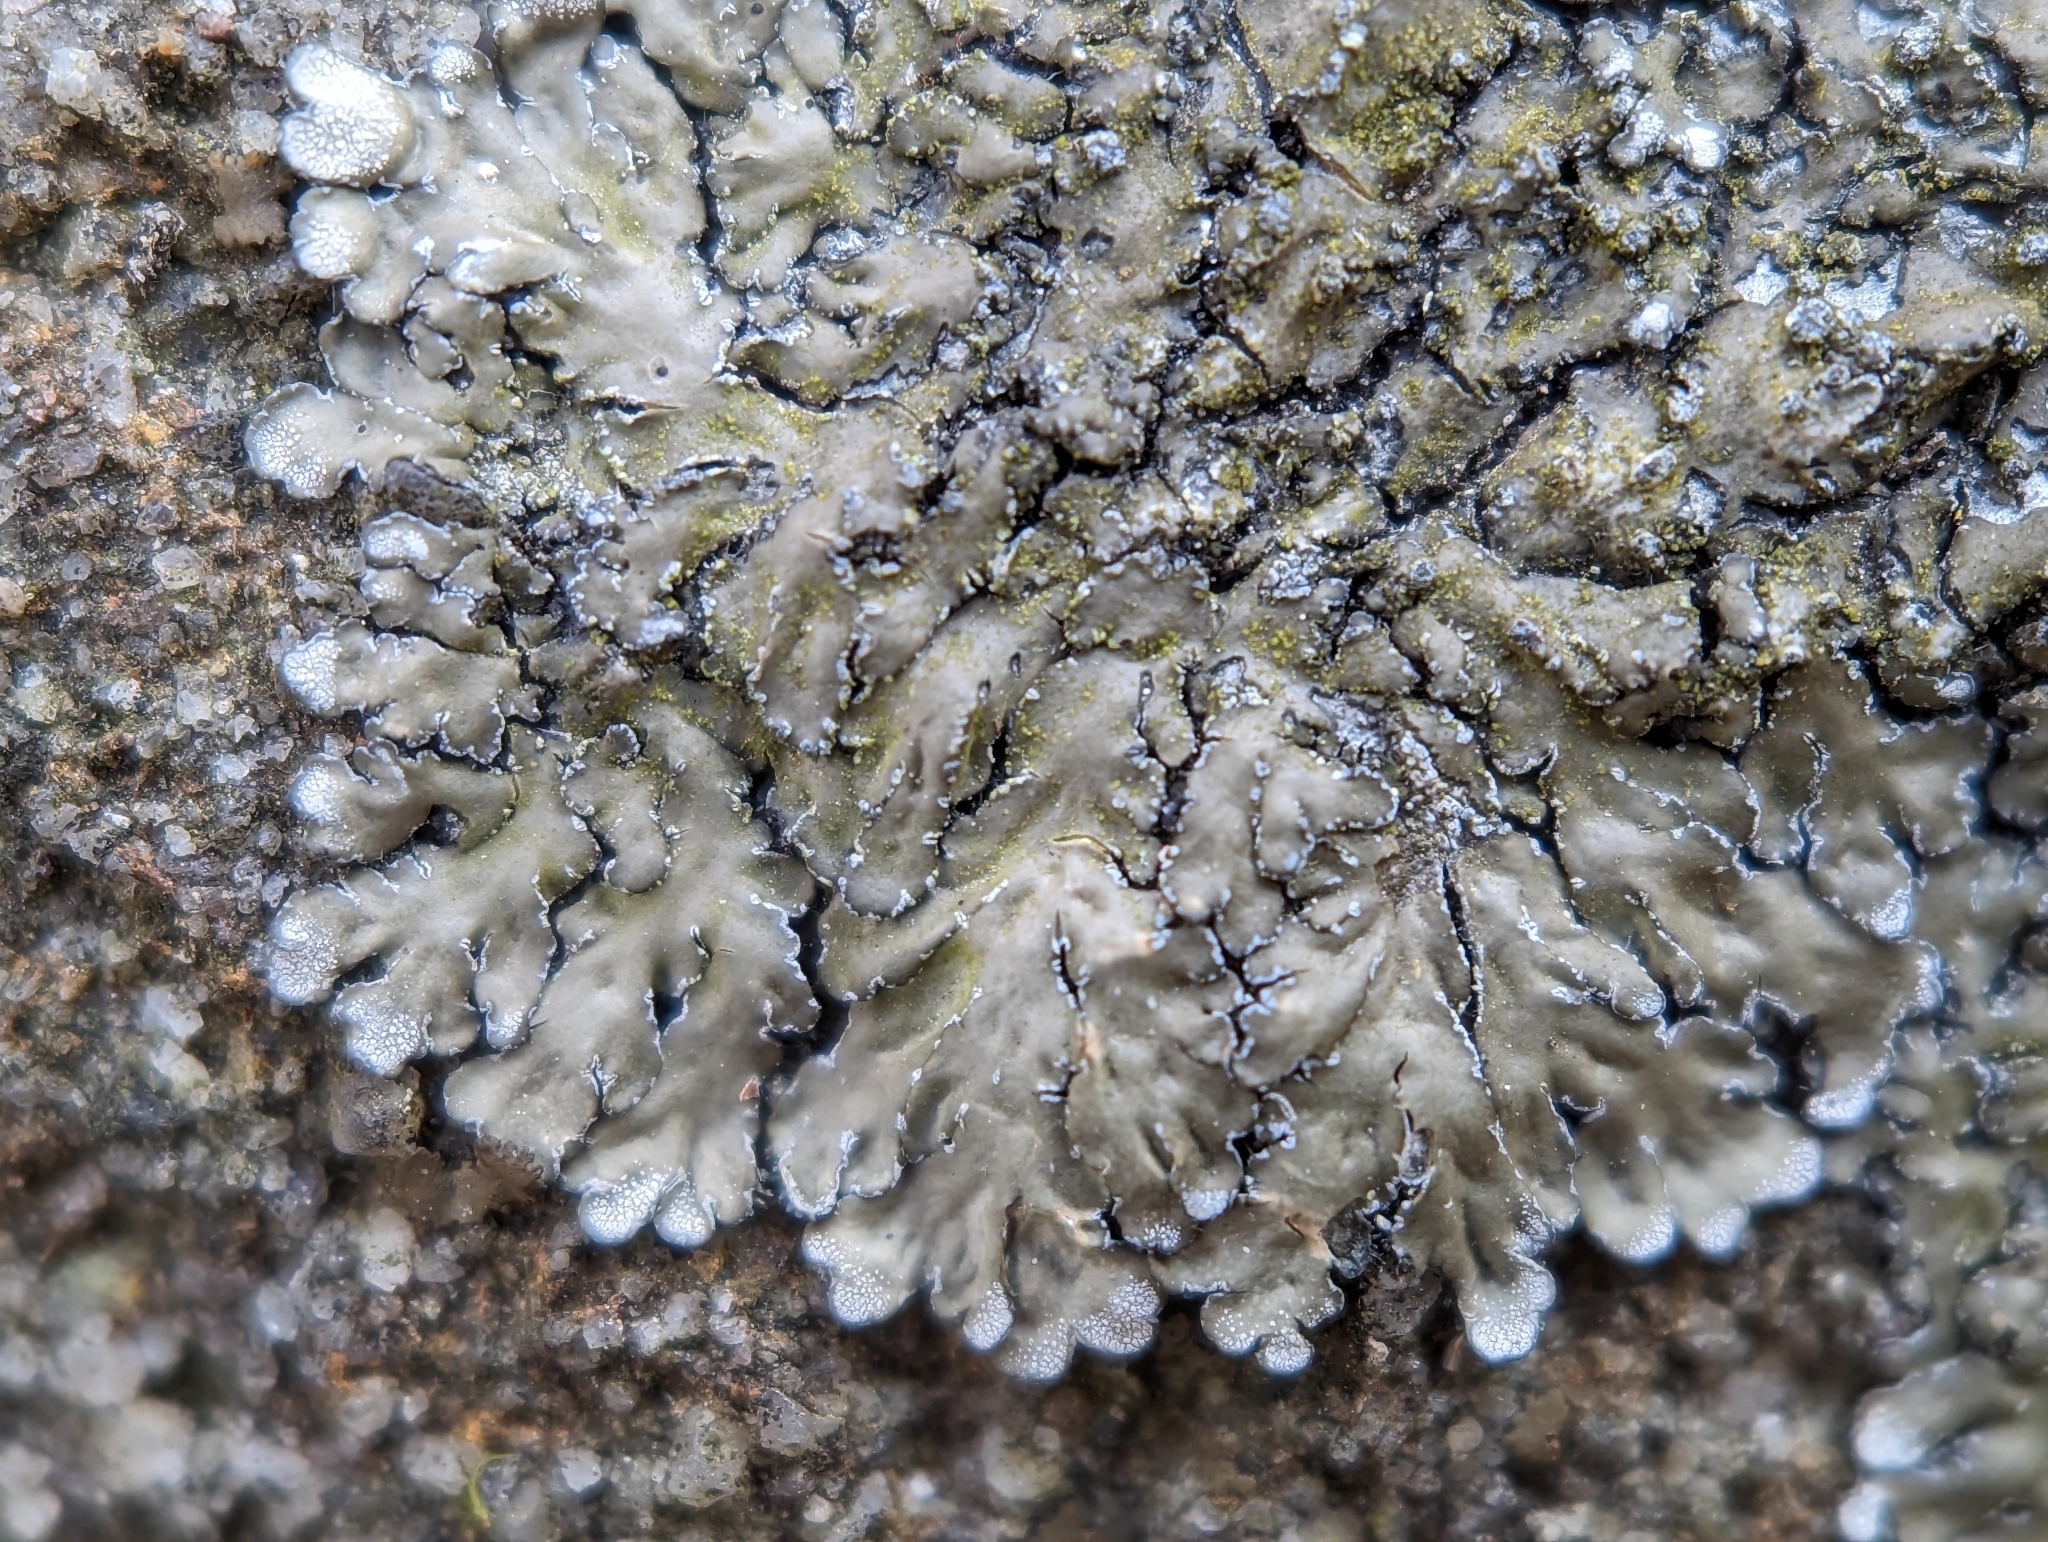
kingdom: Fungi
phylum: Ascomycota
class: Lecanoromycetes
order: Caliciales
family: Caliciaceae
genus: Pyxine
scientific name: Pyxine sorediata
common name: Mustard lichen
